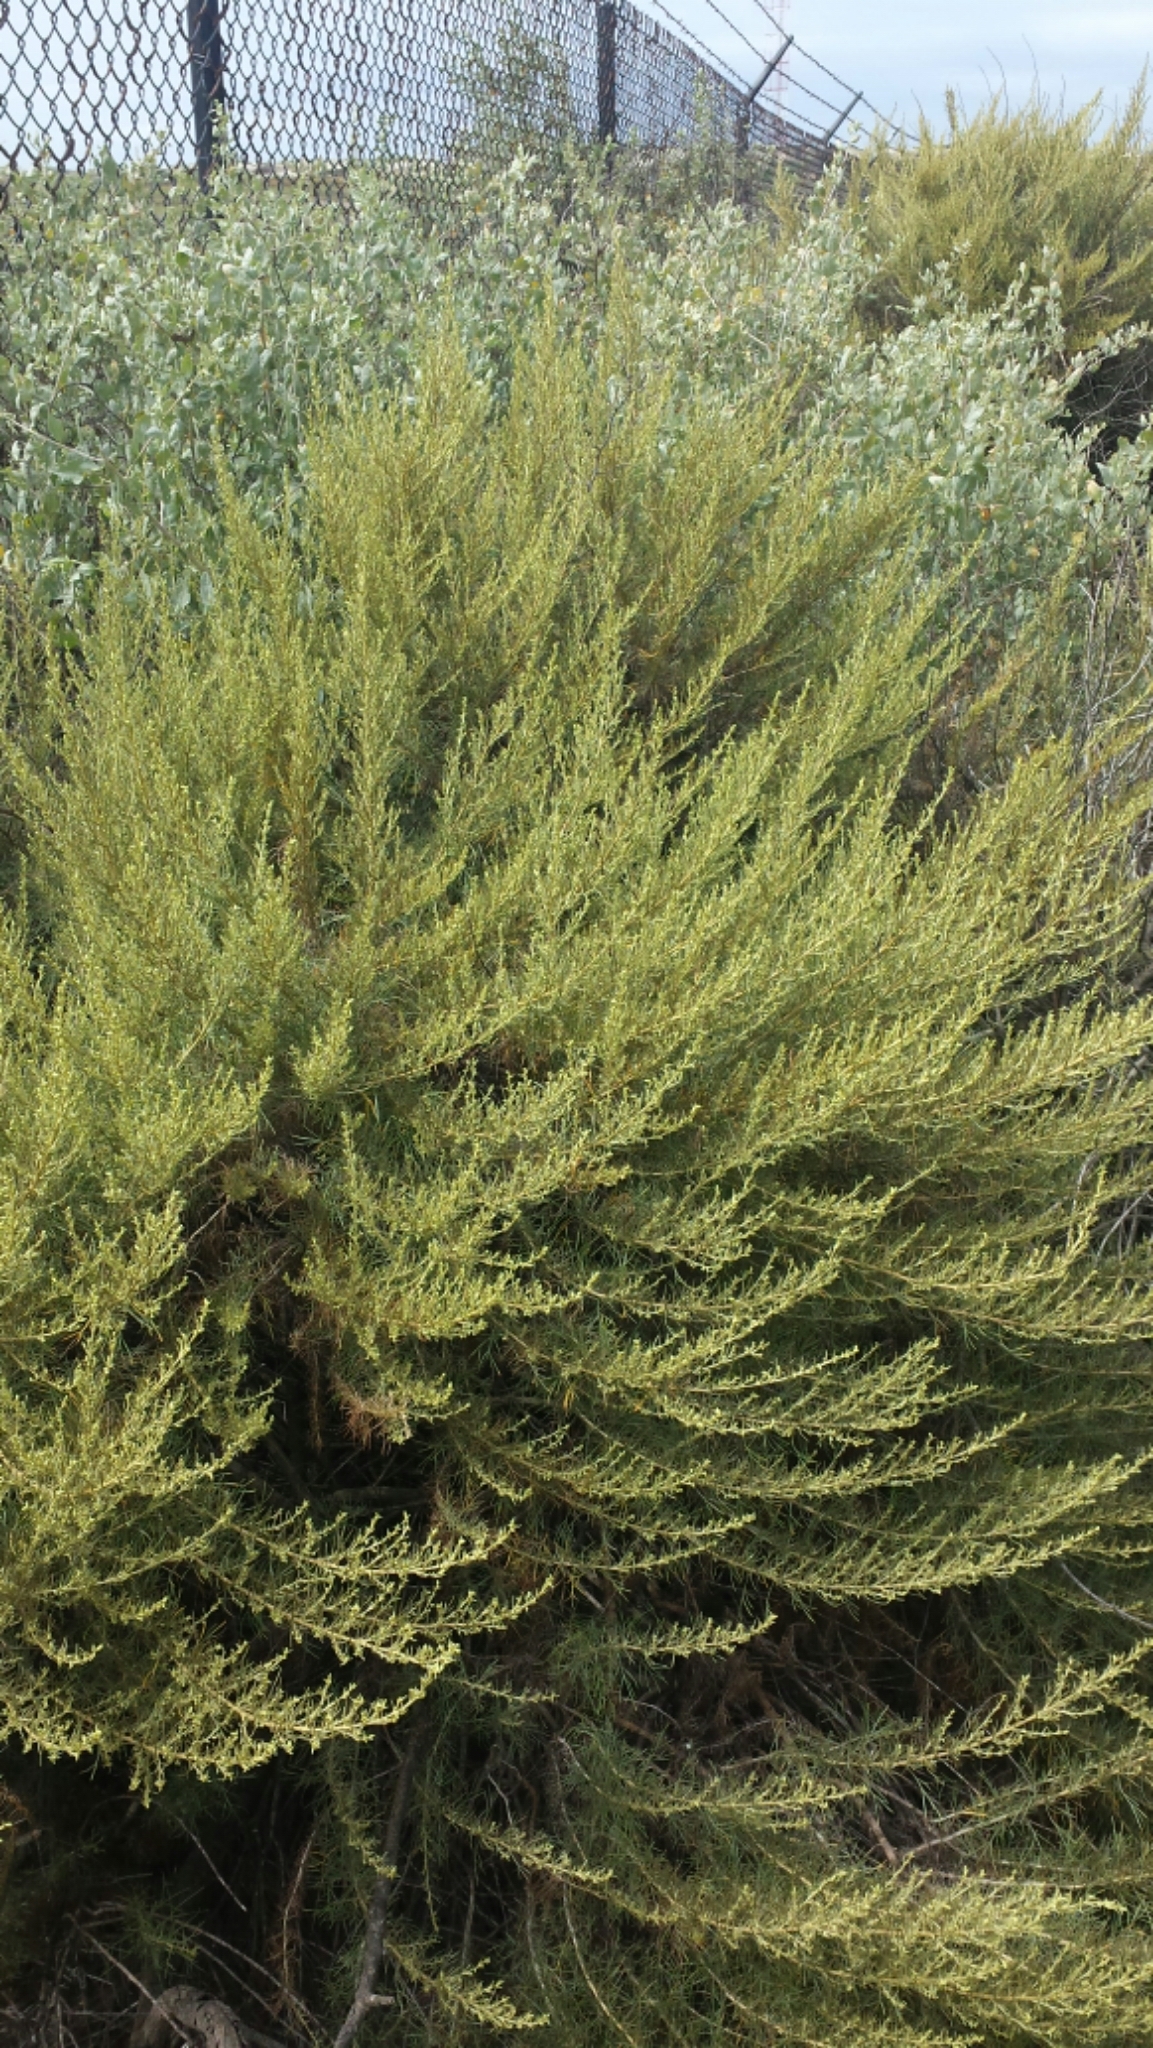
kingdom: Plantae
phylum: Tracheophyta
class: Magnoliopsida
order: Asterales
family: Asteraceae
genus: Artemisia
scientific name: Artemisia californica
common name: California sagebrush
